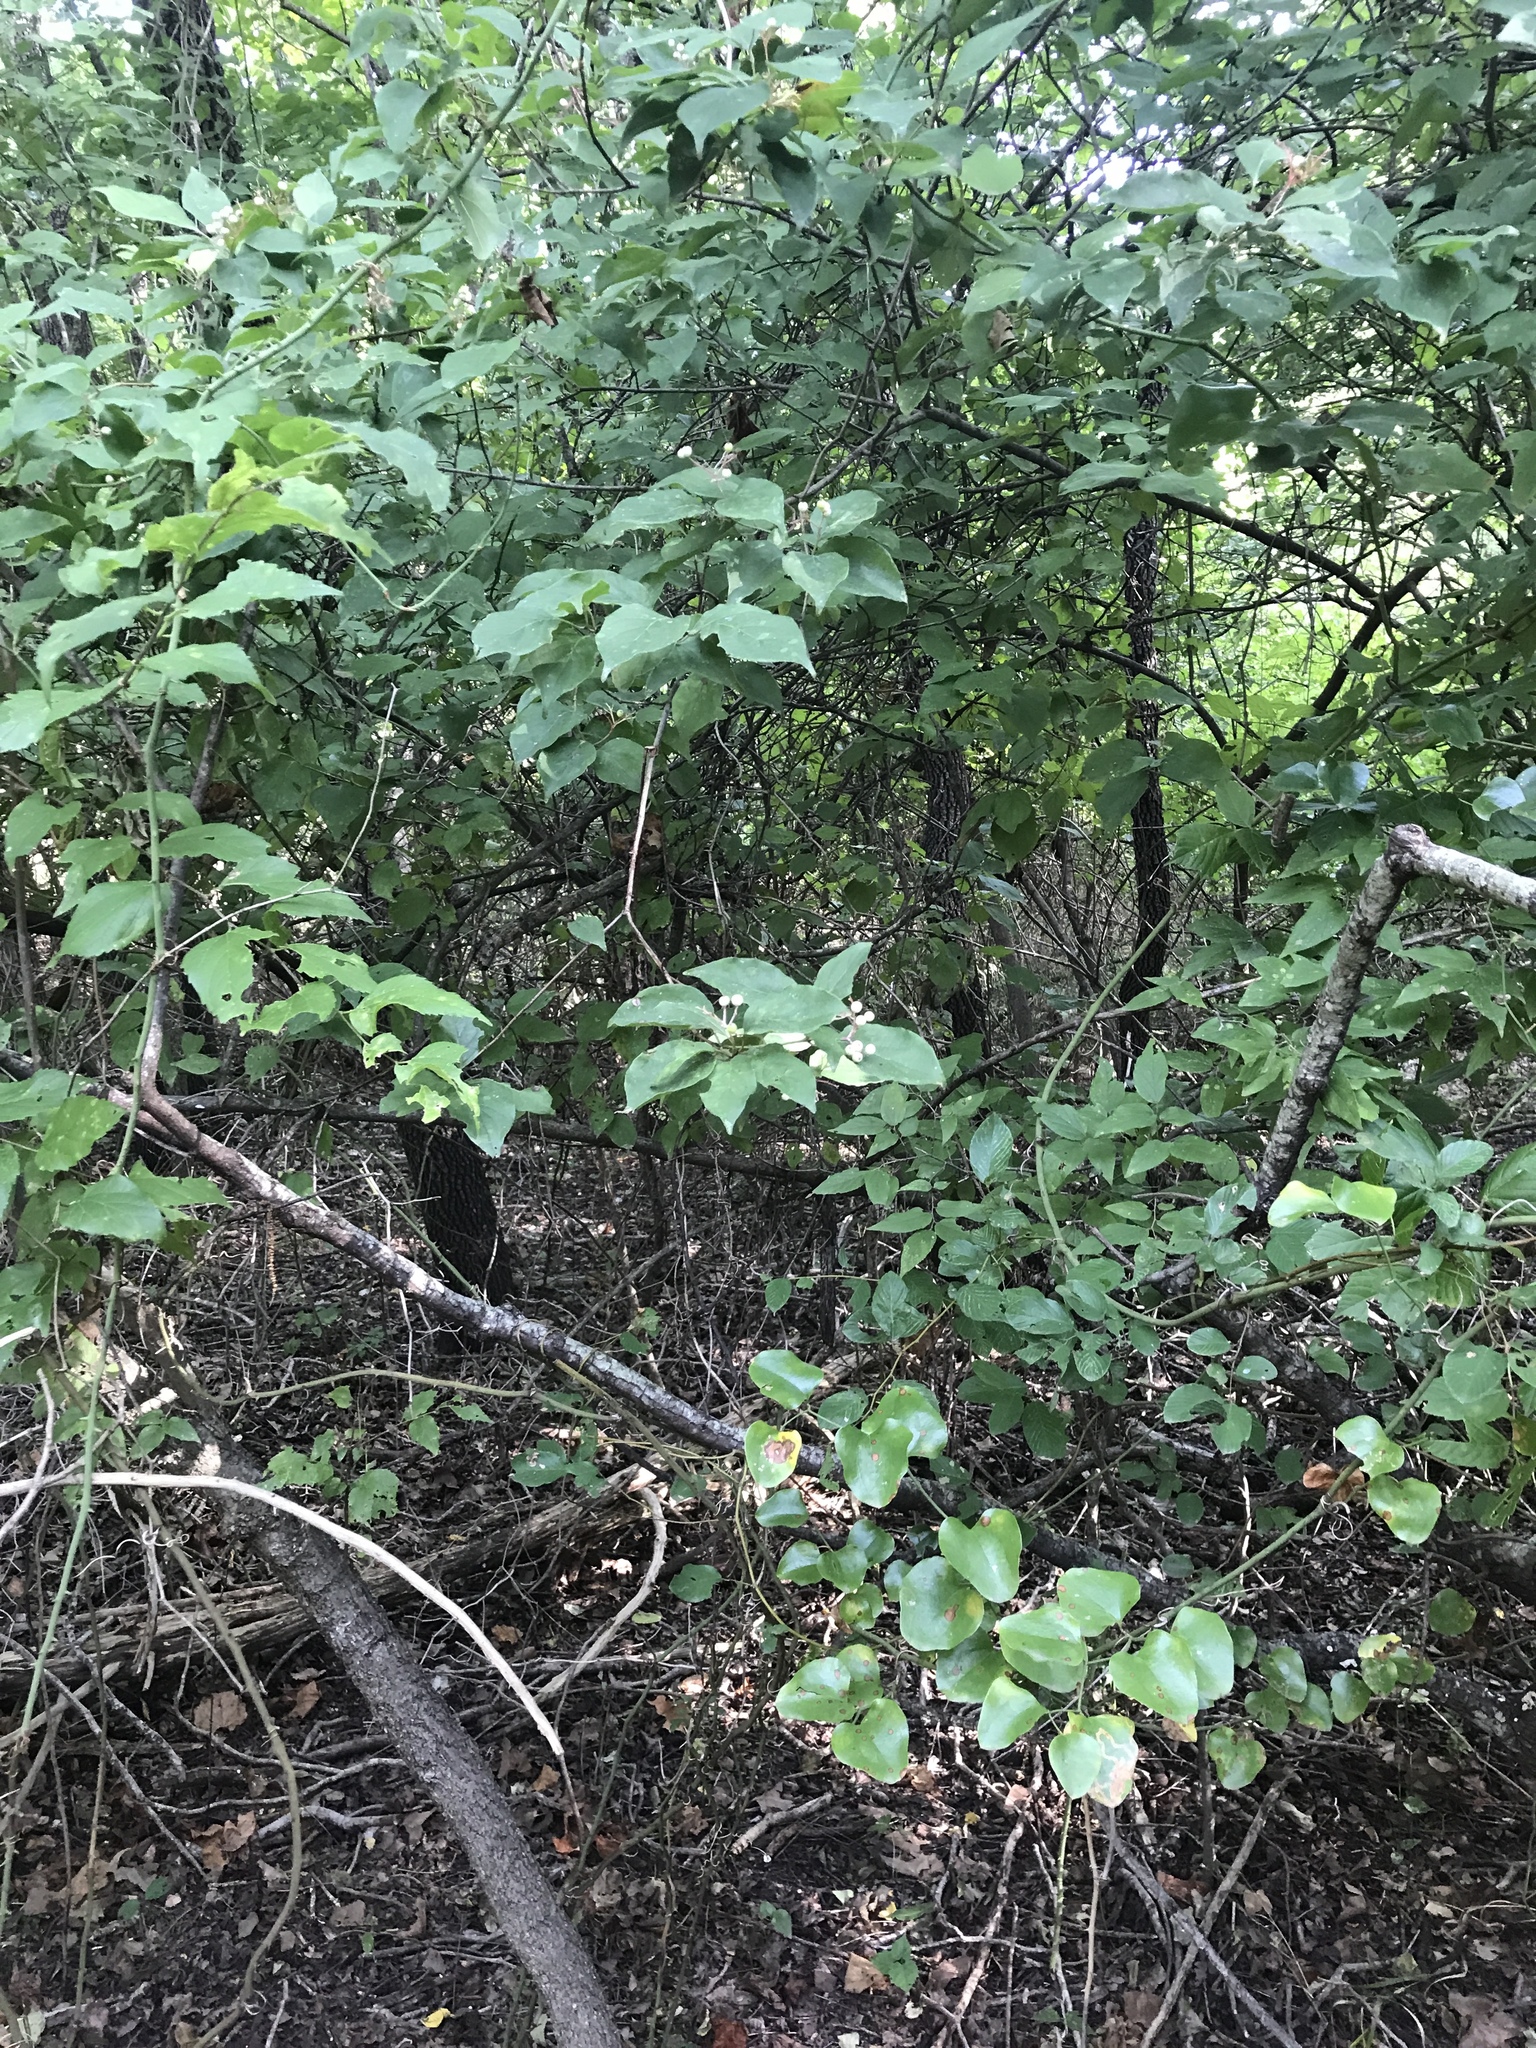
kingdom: Plantae
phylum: Tracheophyta
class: Magnoliopsida
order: Cornales
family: Cornaceae
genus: Cornus
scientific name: Cornus drummondii
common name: Rough-leaf dogwood
